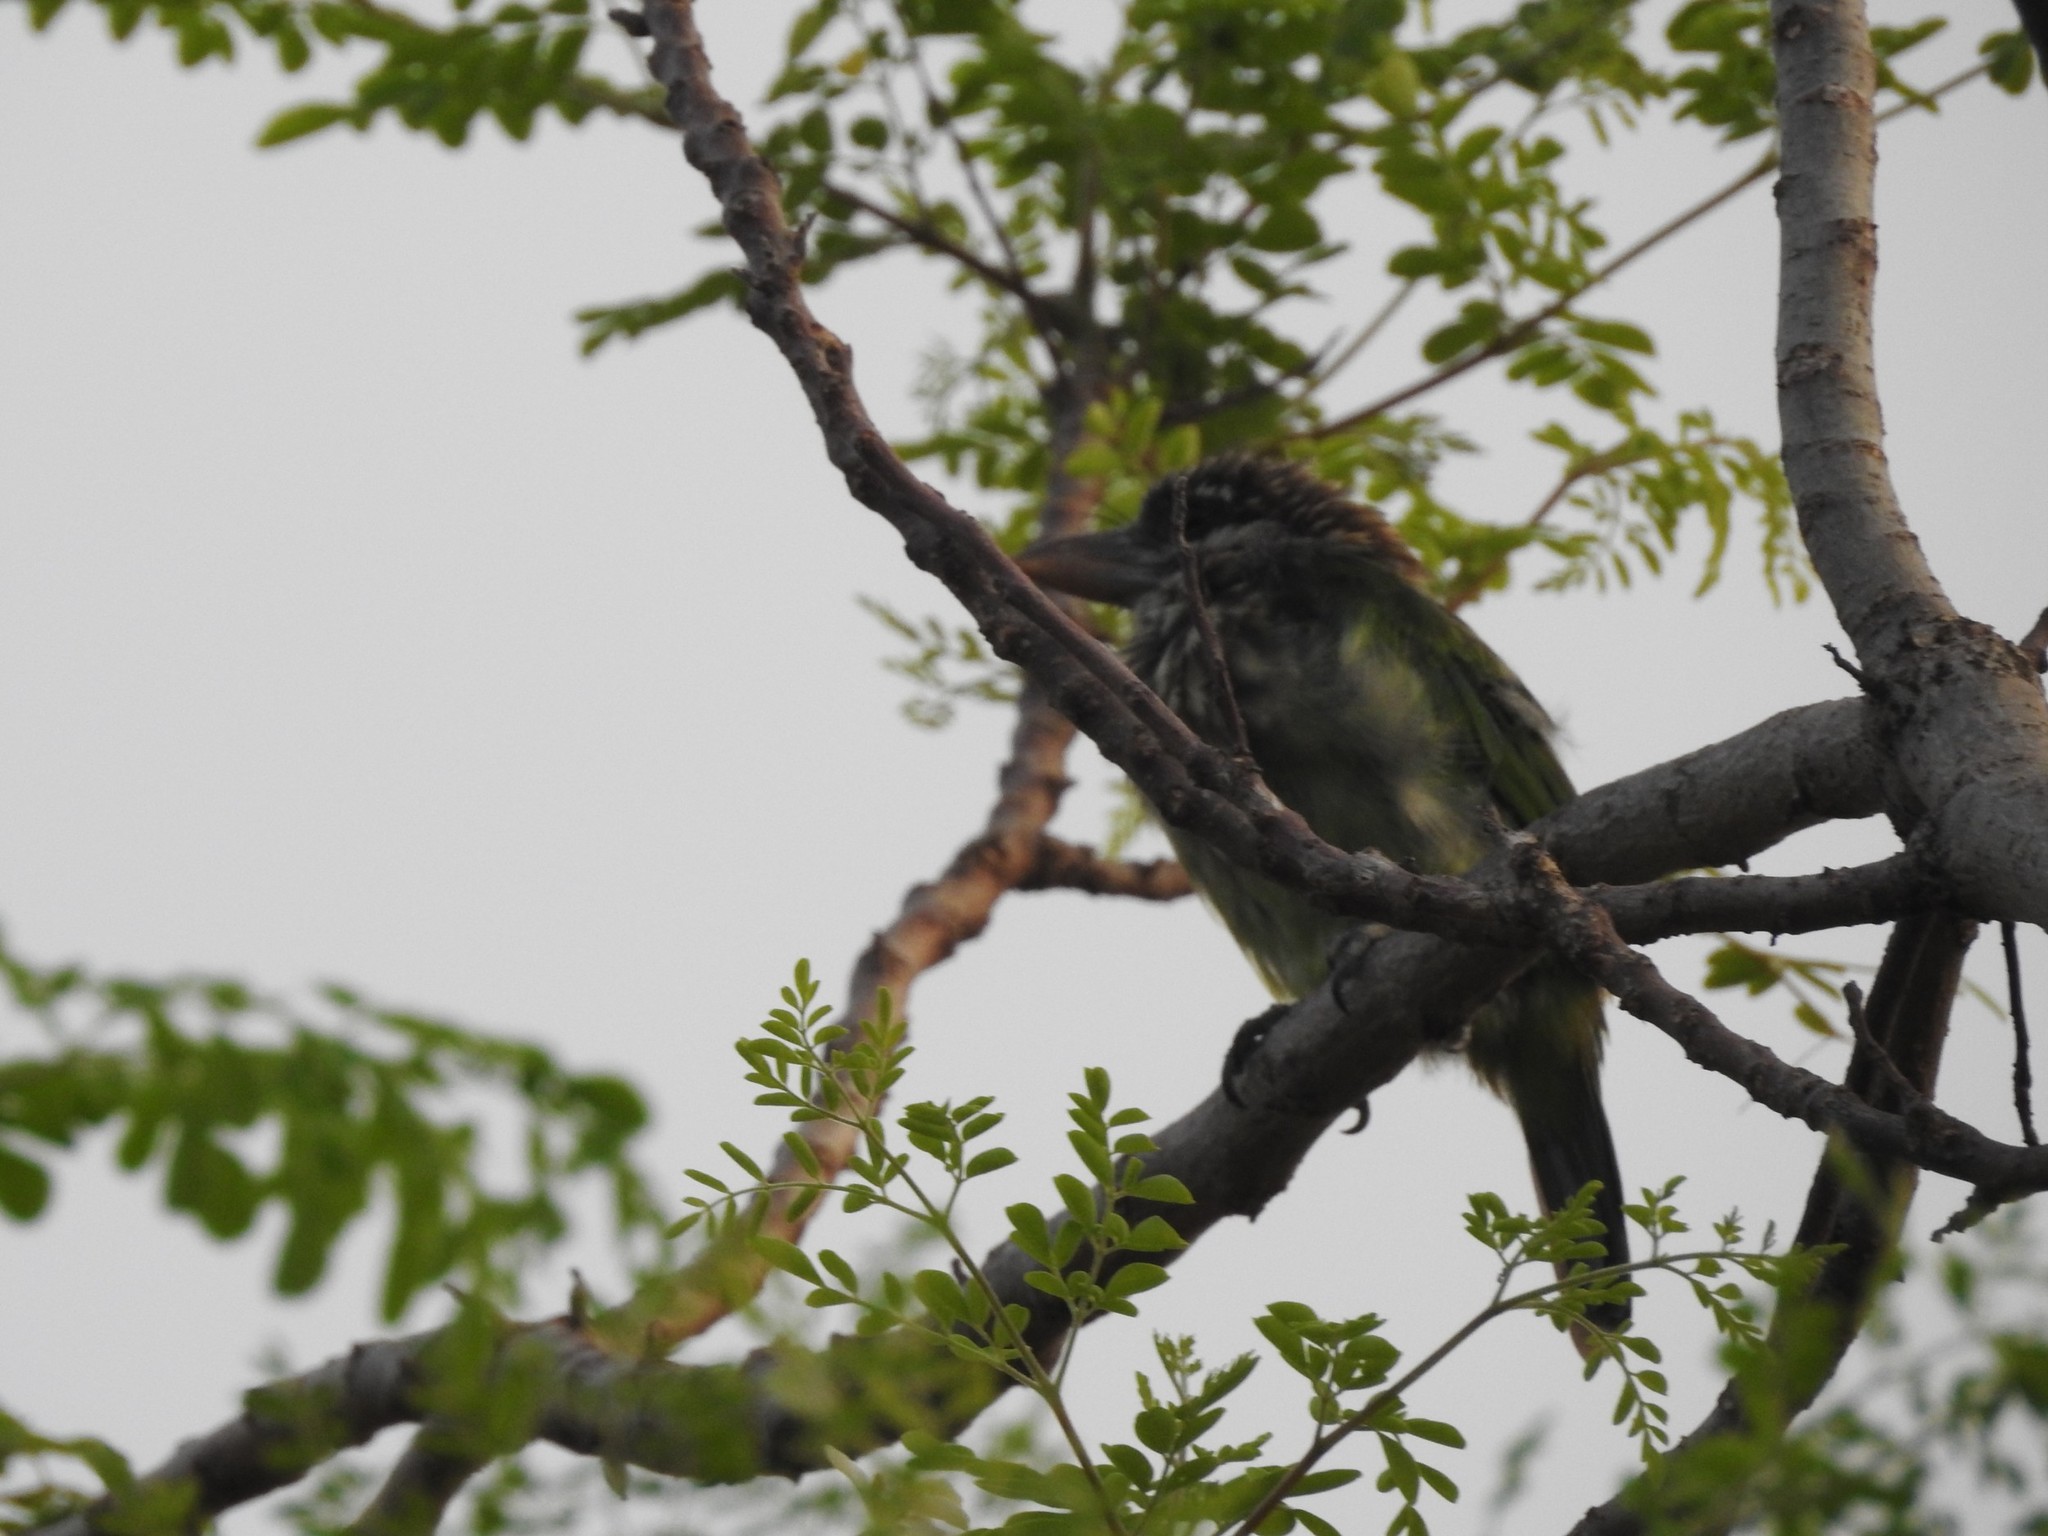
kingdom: Animalia
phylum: Chordata
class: Aves
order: Piciformes
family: Megalaimidae
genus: Psilopogon
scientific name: Psilopogon viridis
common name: White-cheeked barbet
